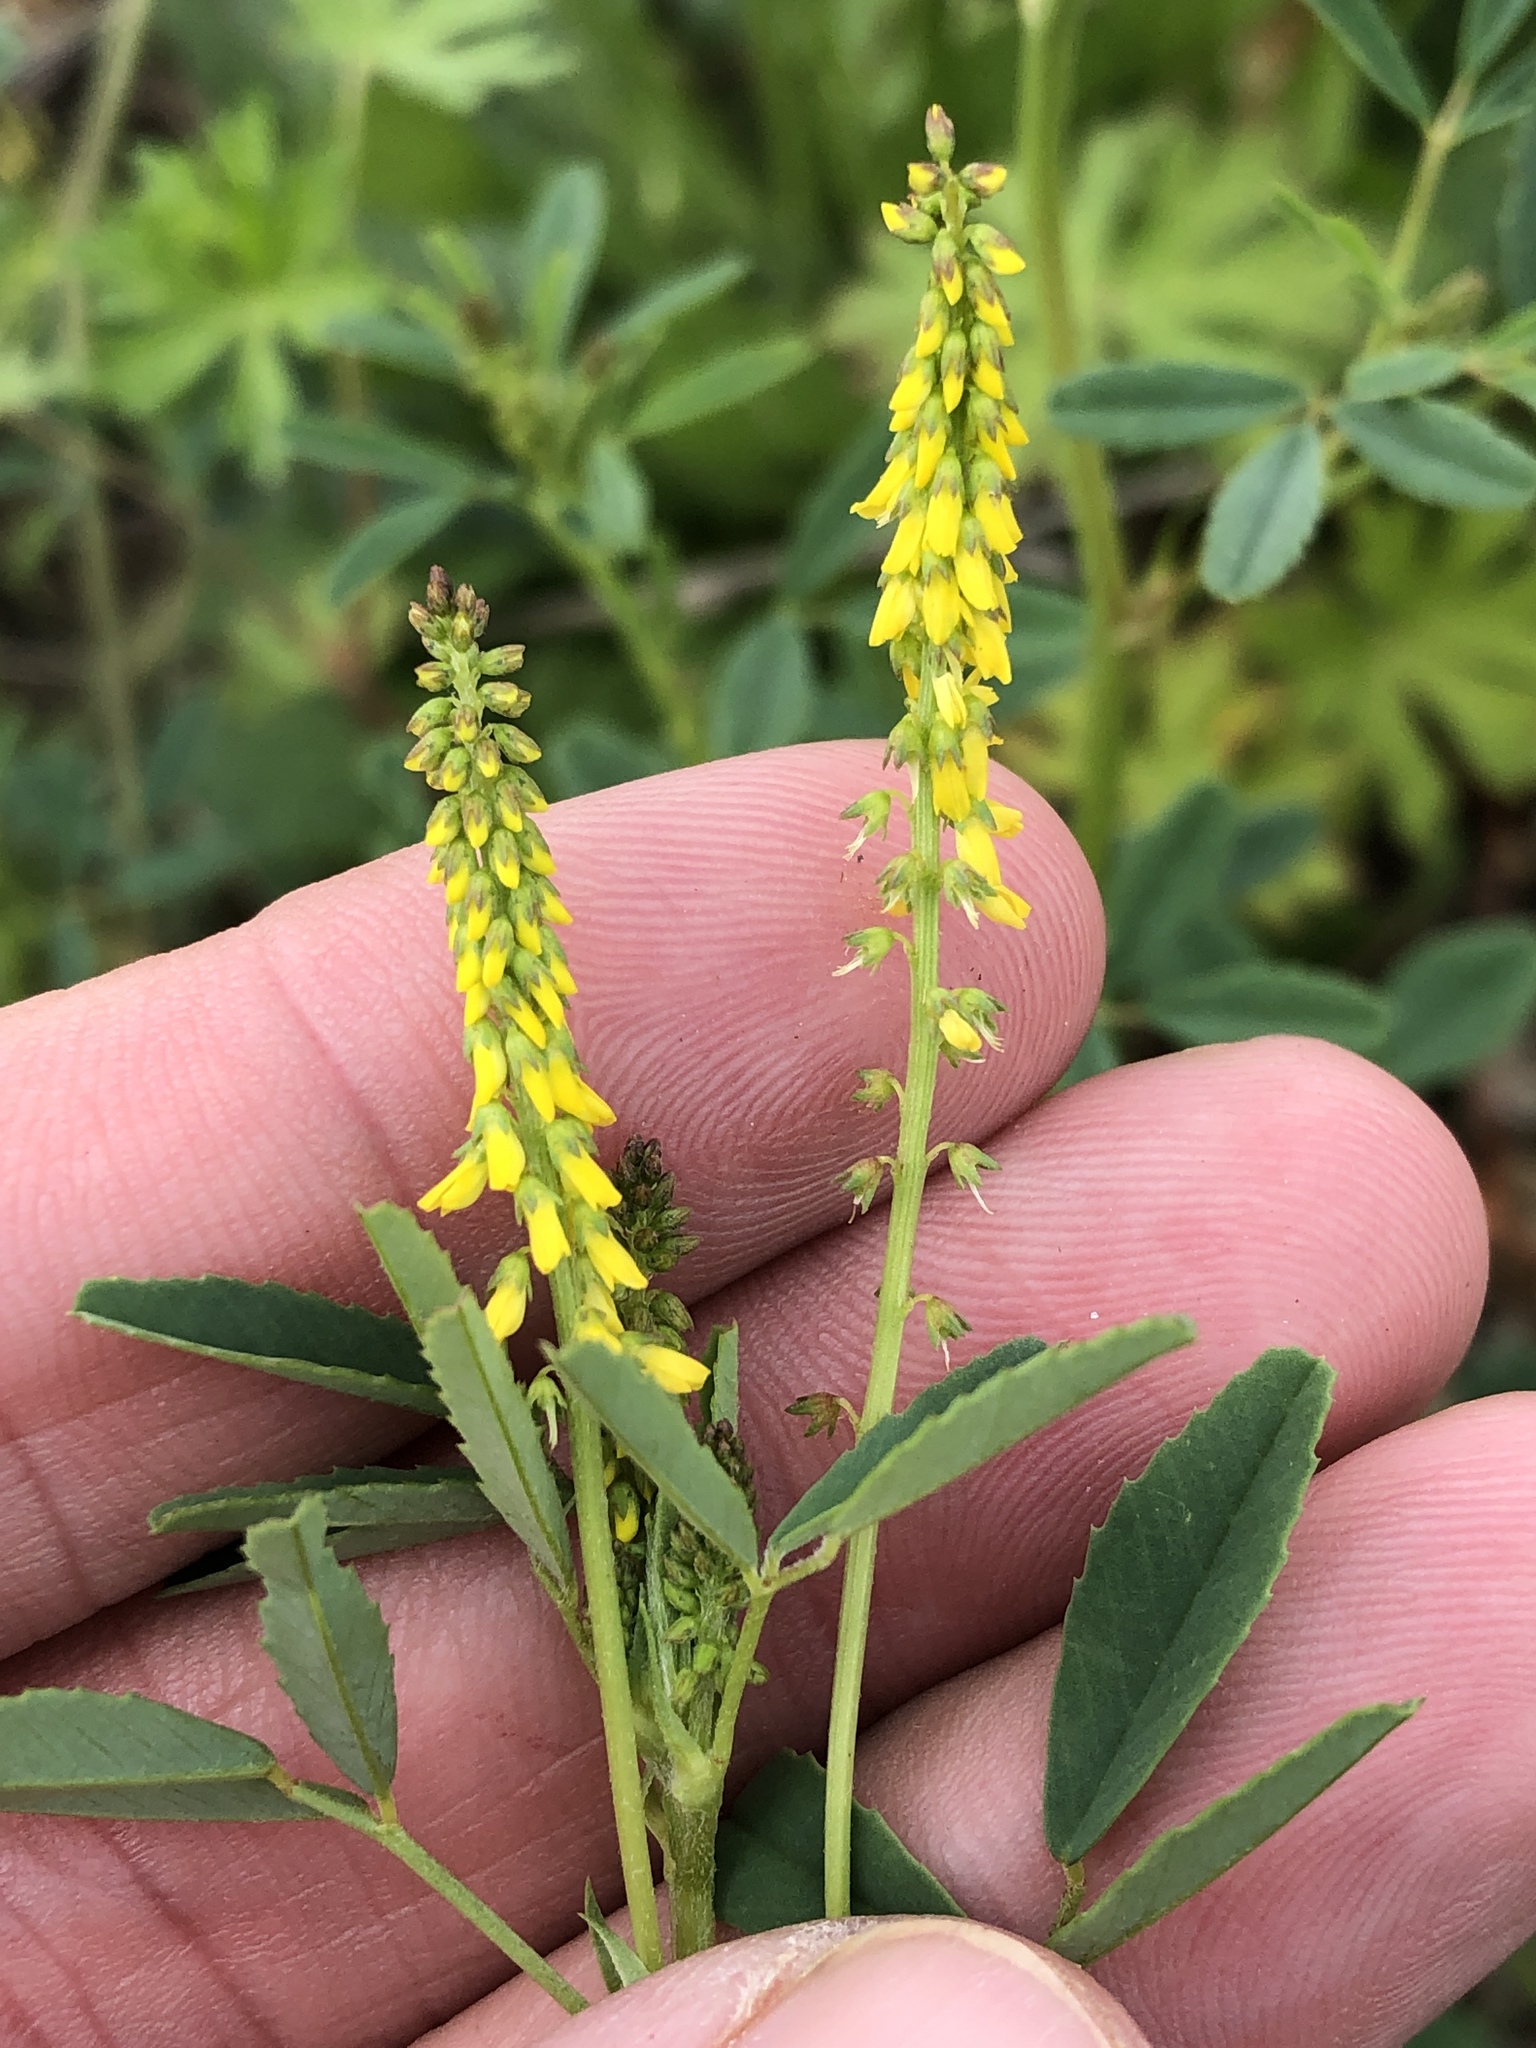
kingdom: Plantae
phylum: Tracheophyta
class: Magnoliopsida
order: Fabales
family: Fabaceae
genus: Melilotus
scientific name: Melilotus indicus
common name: Small melilot
